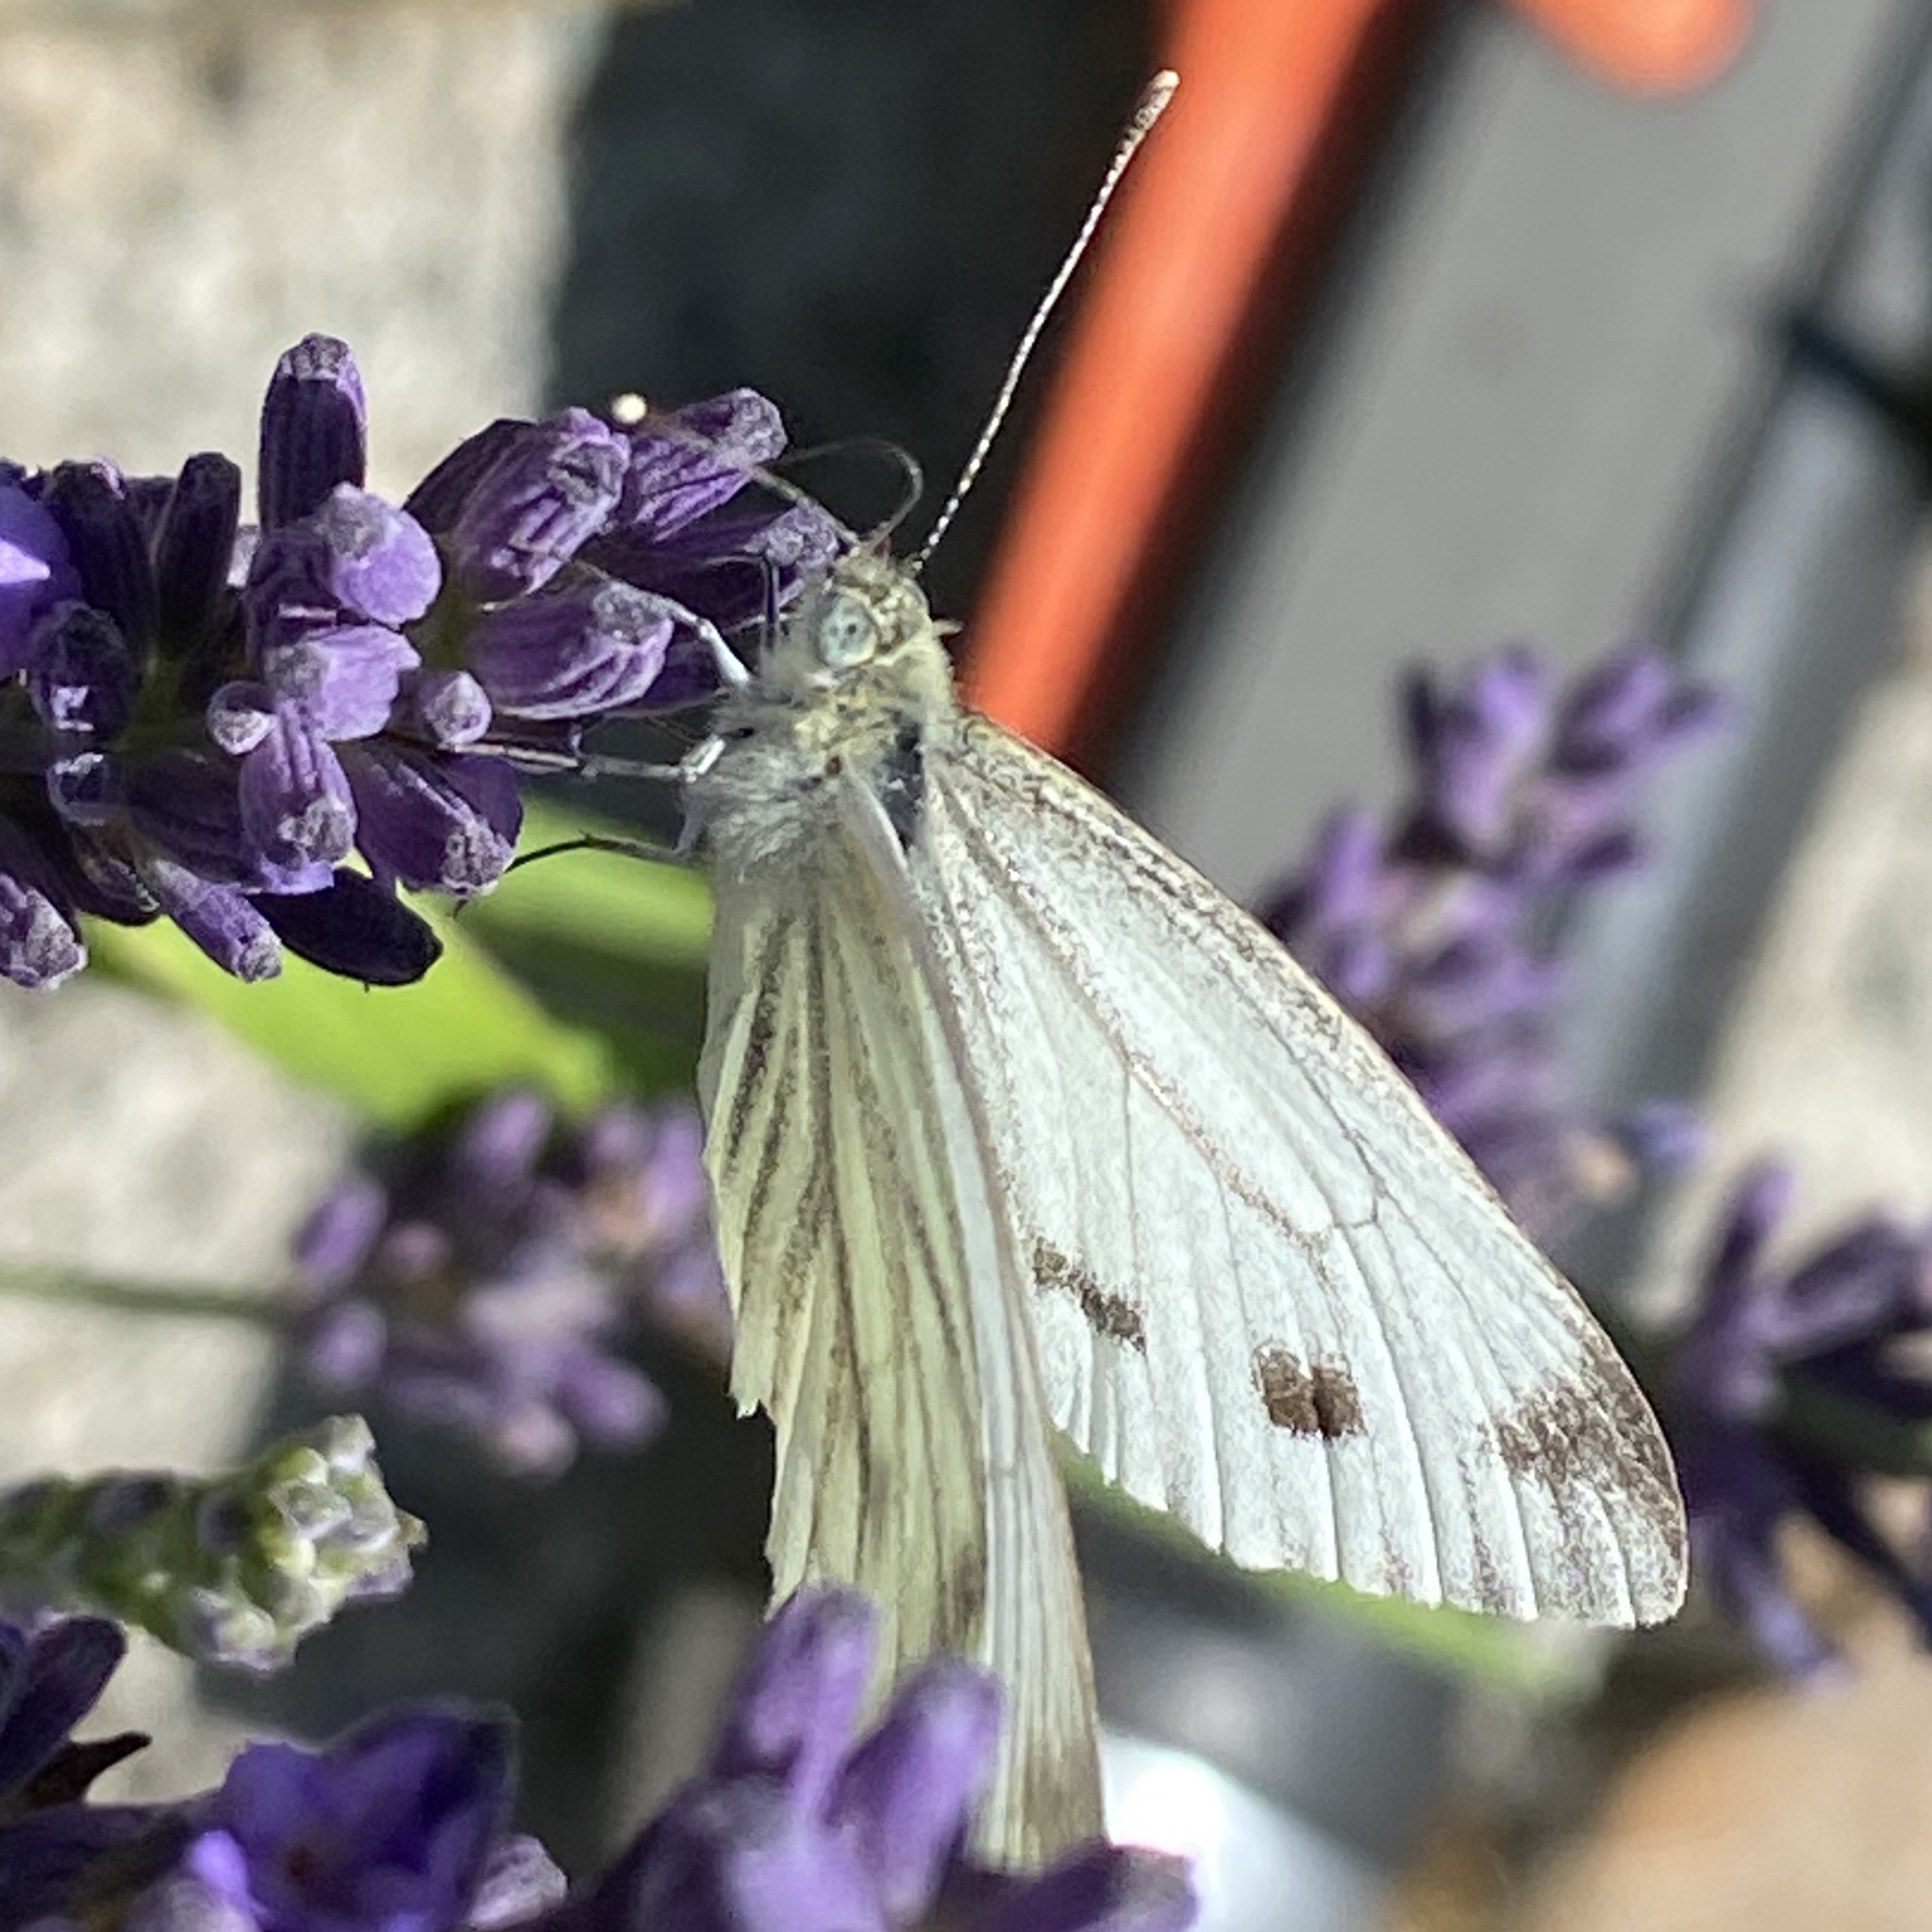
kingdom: Animalia
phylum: Arthropoda
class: Insecta
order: Lepidoptera
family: Pieridae
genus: Pieris
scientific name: Pieris napi
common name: Green-veined white
